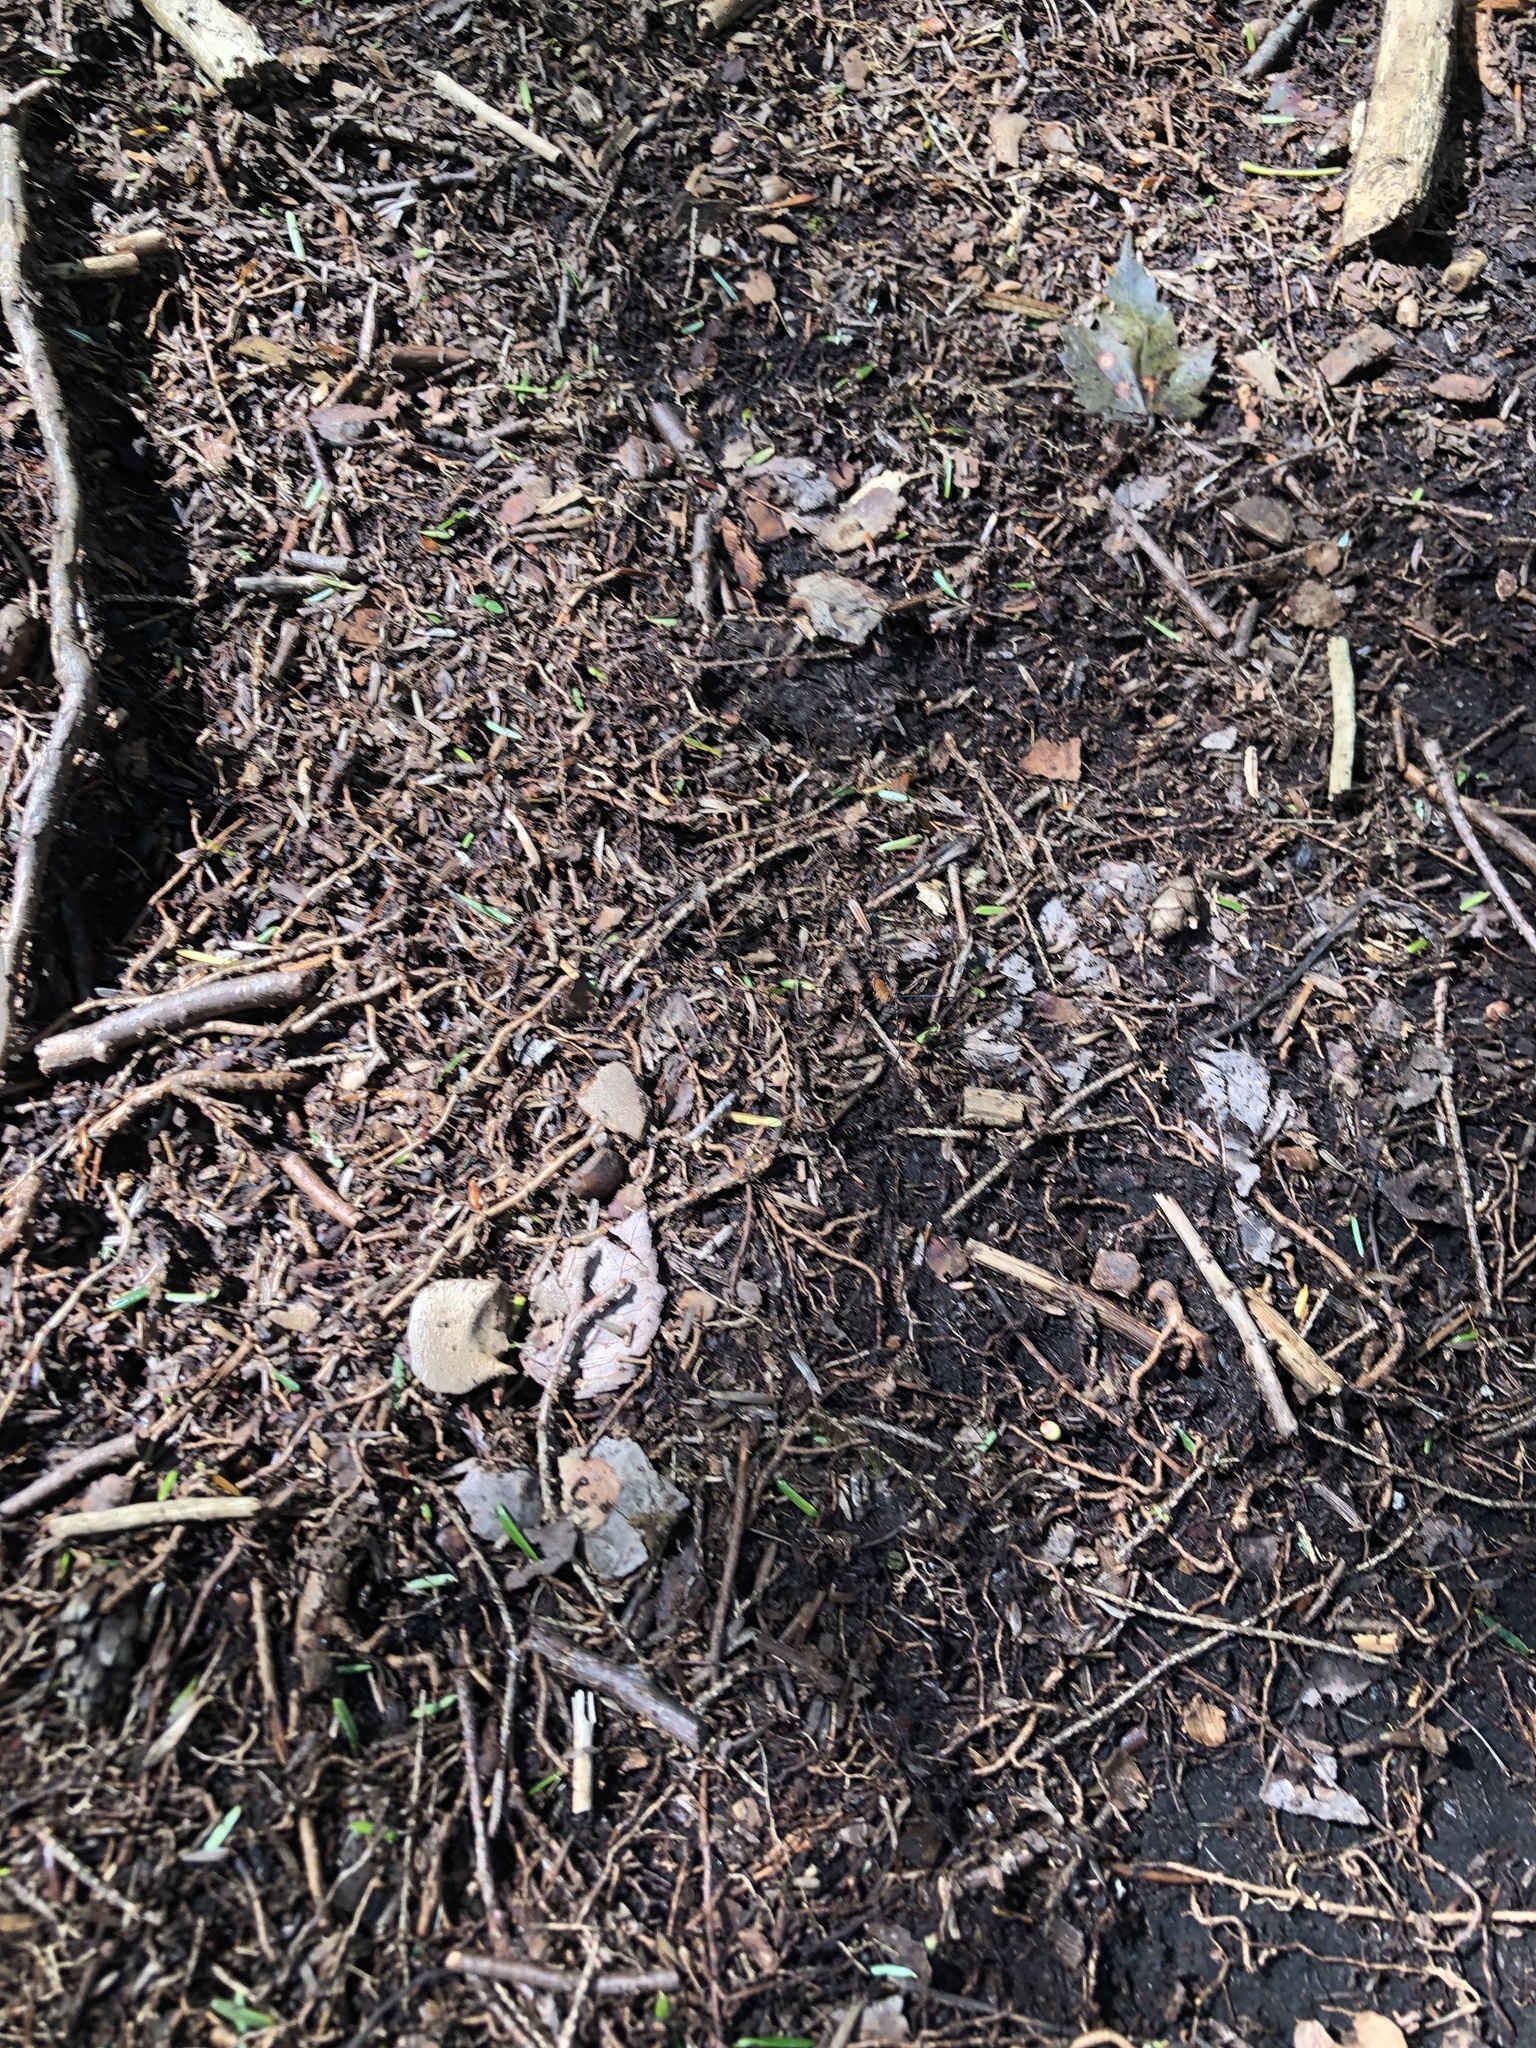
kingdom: Animalia
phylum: Arthropoda
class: Arachnida
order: Opiliones
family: Sclerosomatidae
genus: Leiobunum
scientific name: Leiobunum nigropalpi
